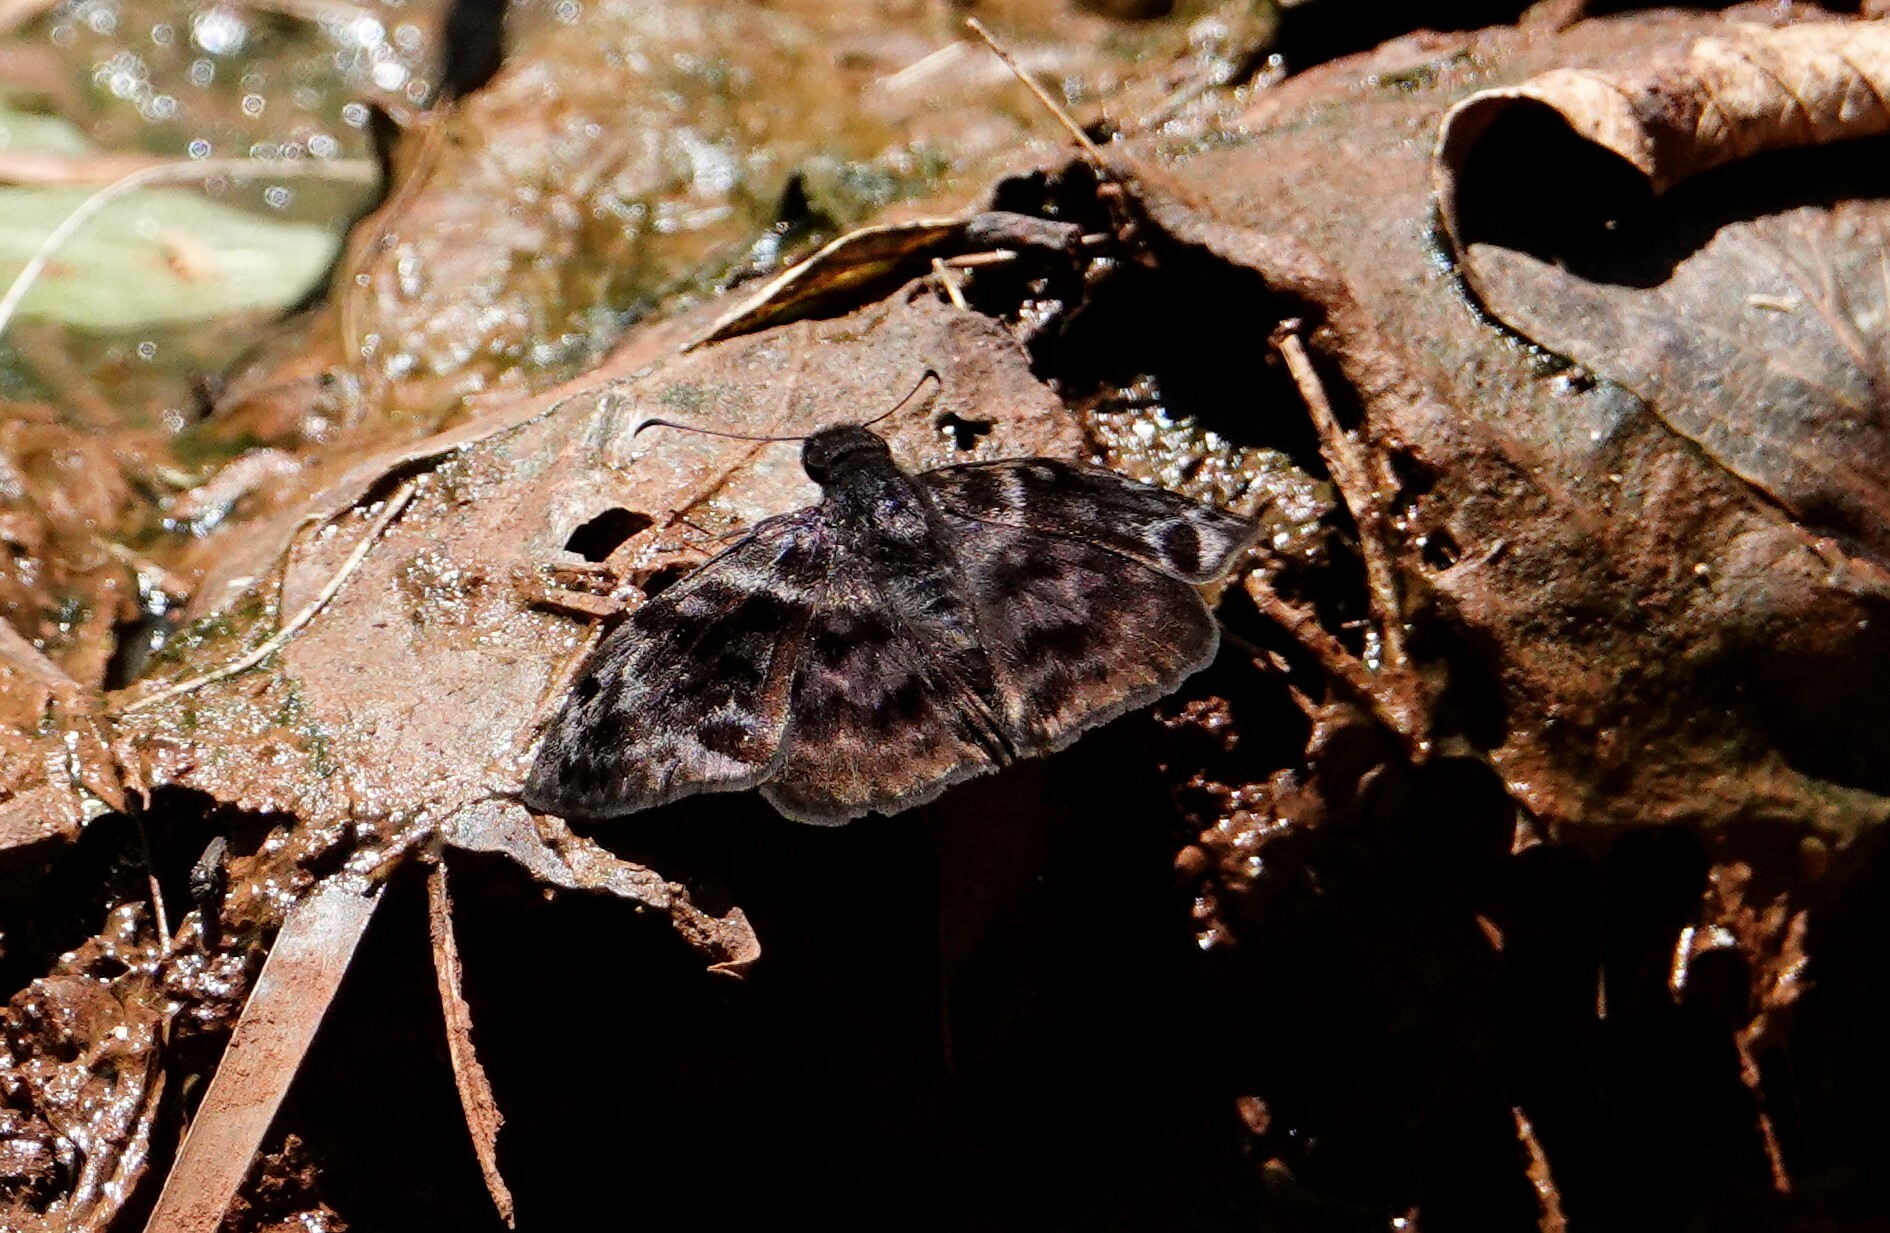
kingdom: Animalia
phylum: Arthropoda
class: Insecta
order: Lepidoptera
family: Hesperiidae
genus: Ebrietas
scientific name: Ebrietas anacreon
